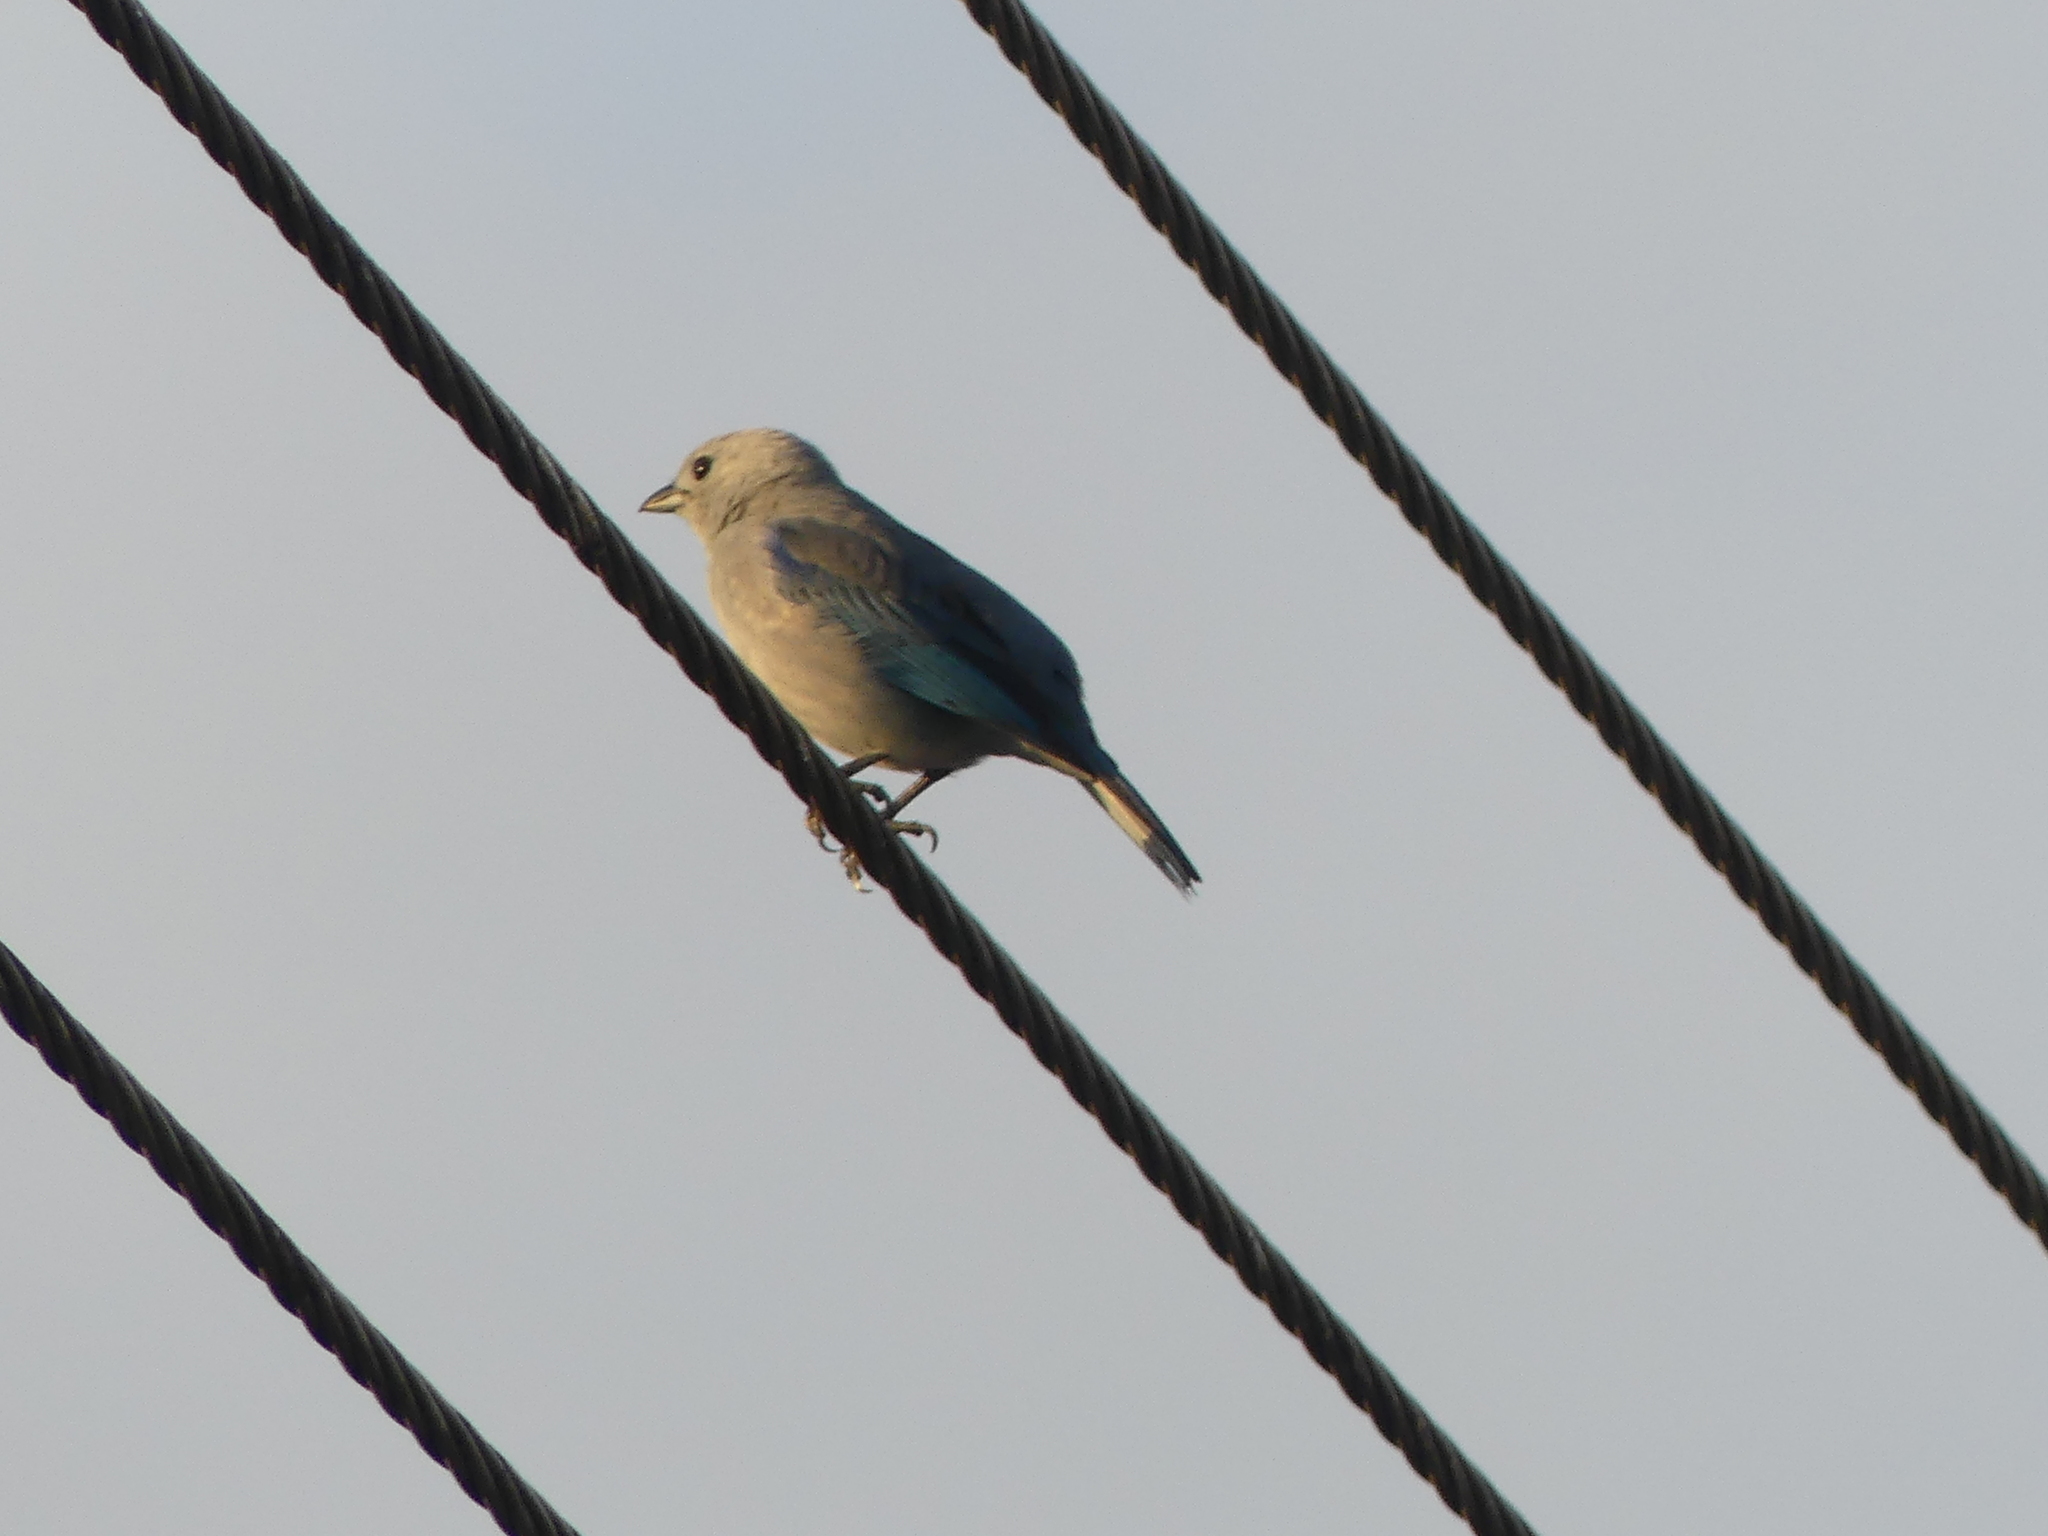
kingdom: Animalia
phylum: Chordata
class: Aves
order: Passeriformes
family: Thraupidae
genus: Thraupis
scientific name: Thraupis episcopus
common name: Blue-grey tanager
